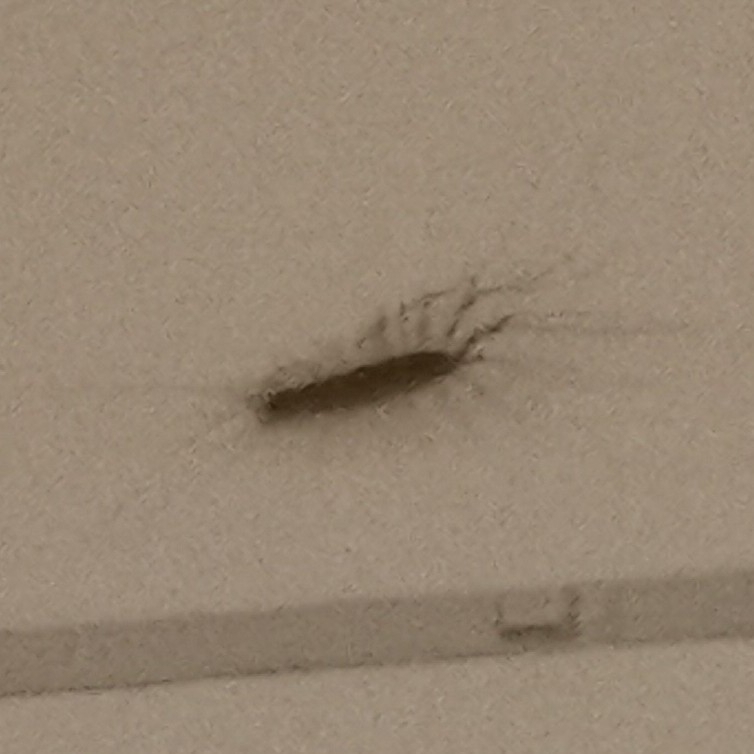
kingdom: Animalia
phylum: Arthropoda
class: Chilopoda
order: Scutigeromorpha
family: Scutigeridae
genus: Scutigera
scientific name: Scutigera coleoptrata
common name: House centipede
